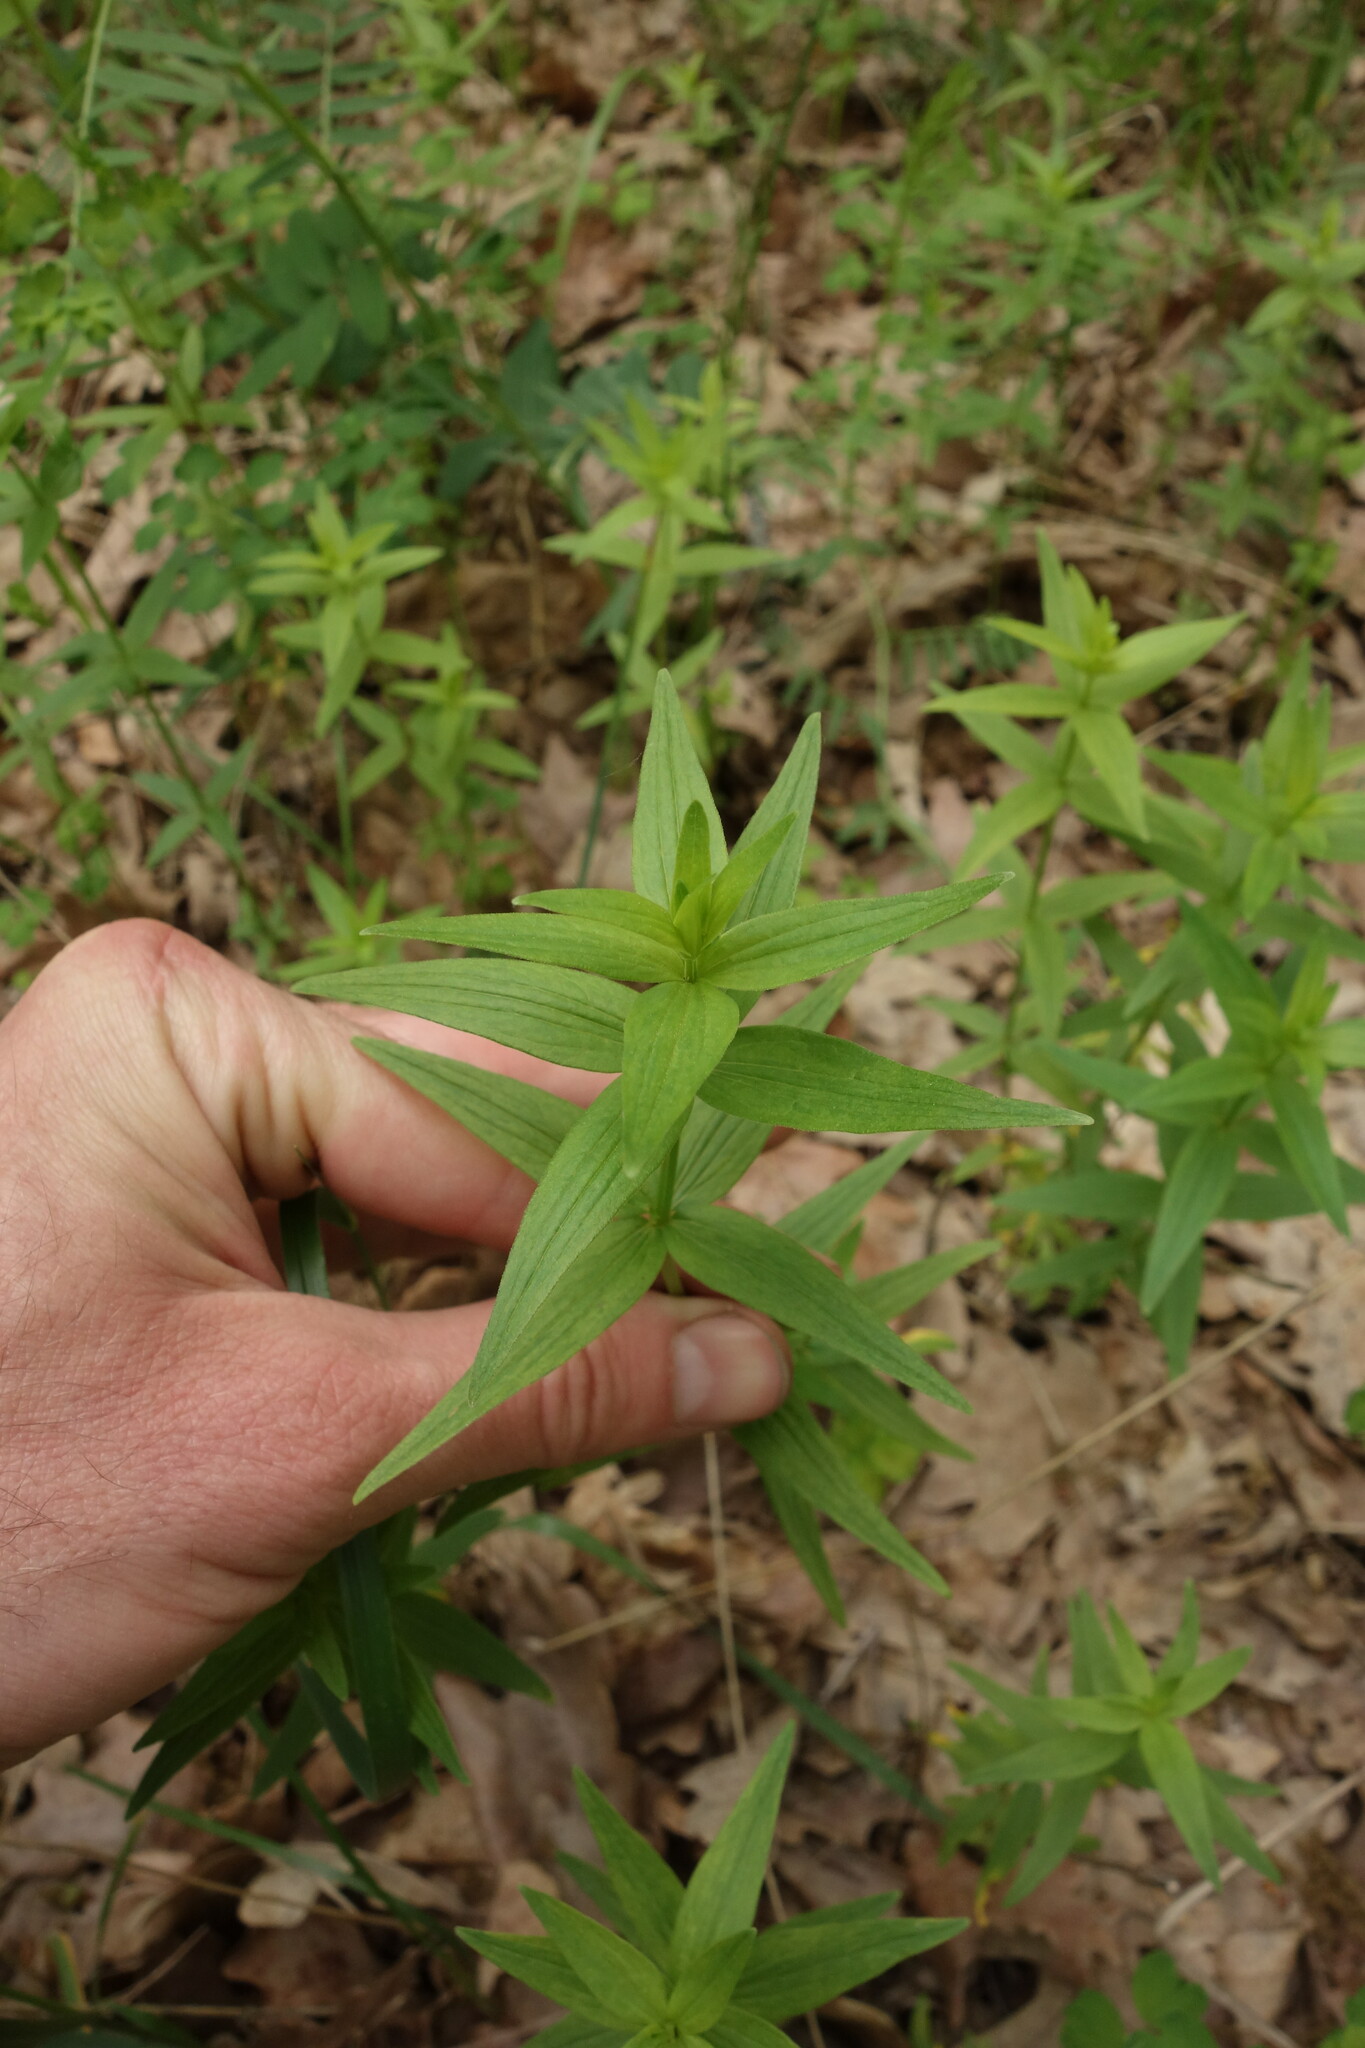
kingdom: Plantae
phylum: Tracheophyta
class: Magnoliopsida
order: Gentianales
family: Rubiaceae
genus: Galium
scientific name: Galium boreale
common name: Northern bedstraw
